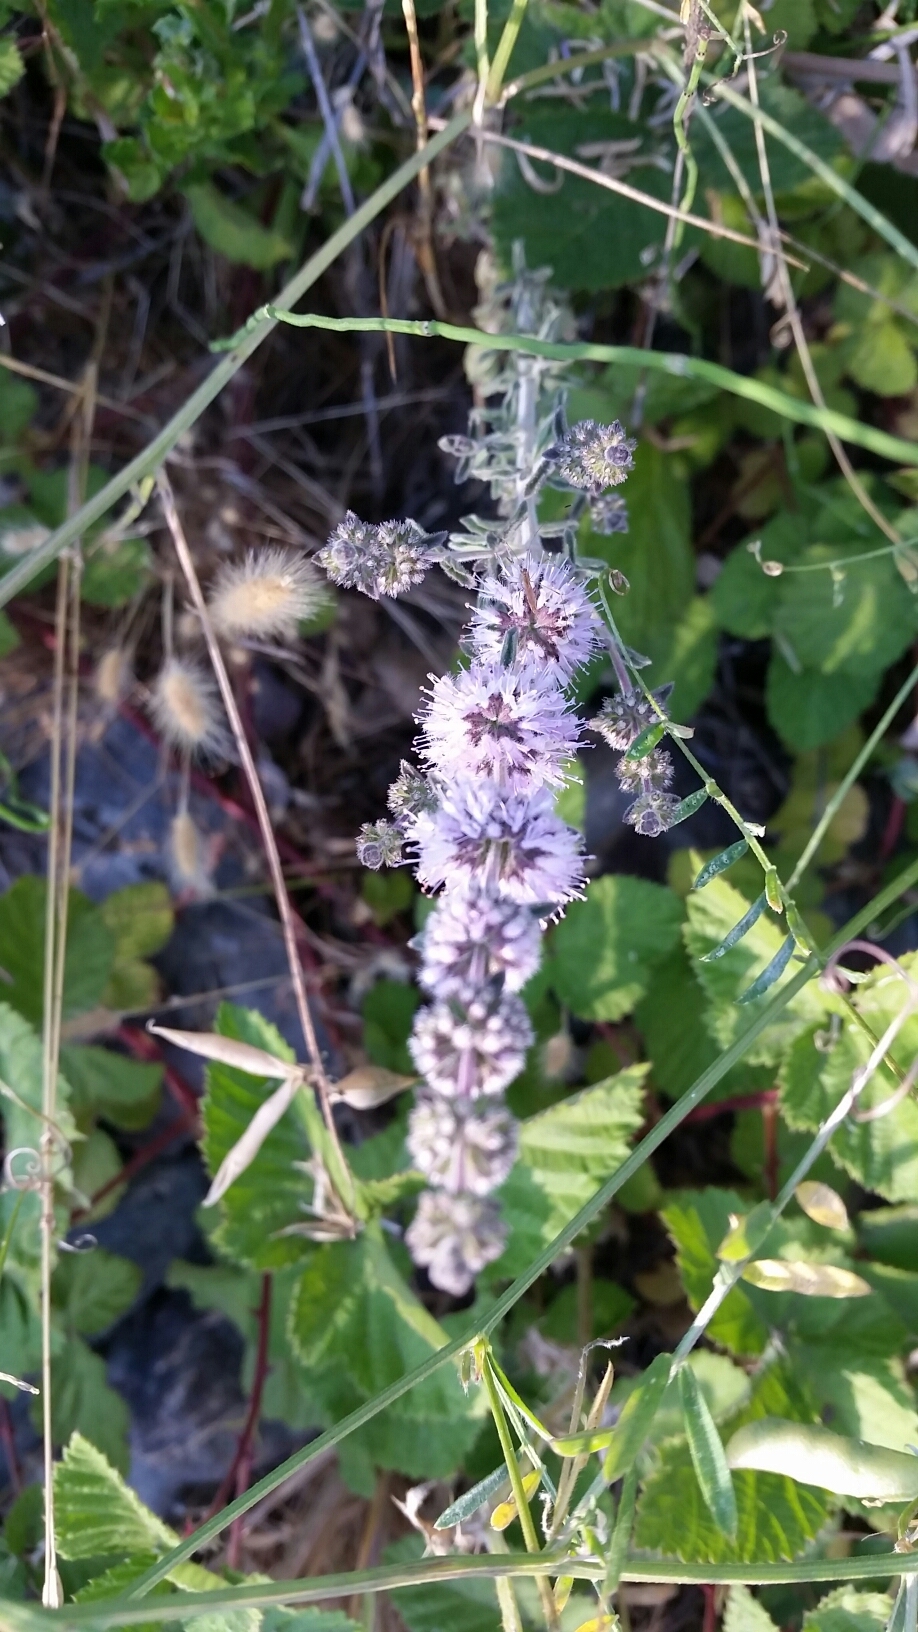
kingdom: Plantae
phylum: Tracheophyta
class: Magnoliopsida
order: Lamiales
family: Lamiaceae
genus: Mentha
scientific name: Mentha pulegium
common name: Pennyroyal
